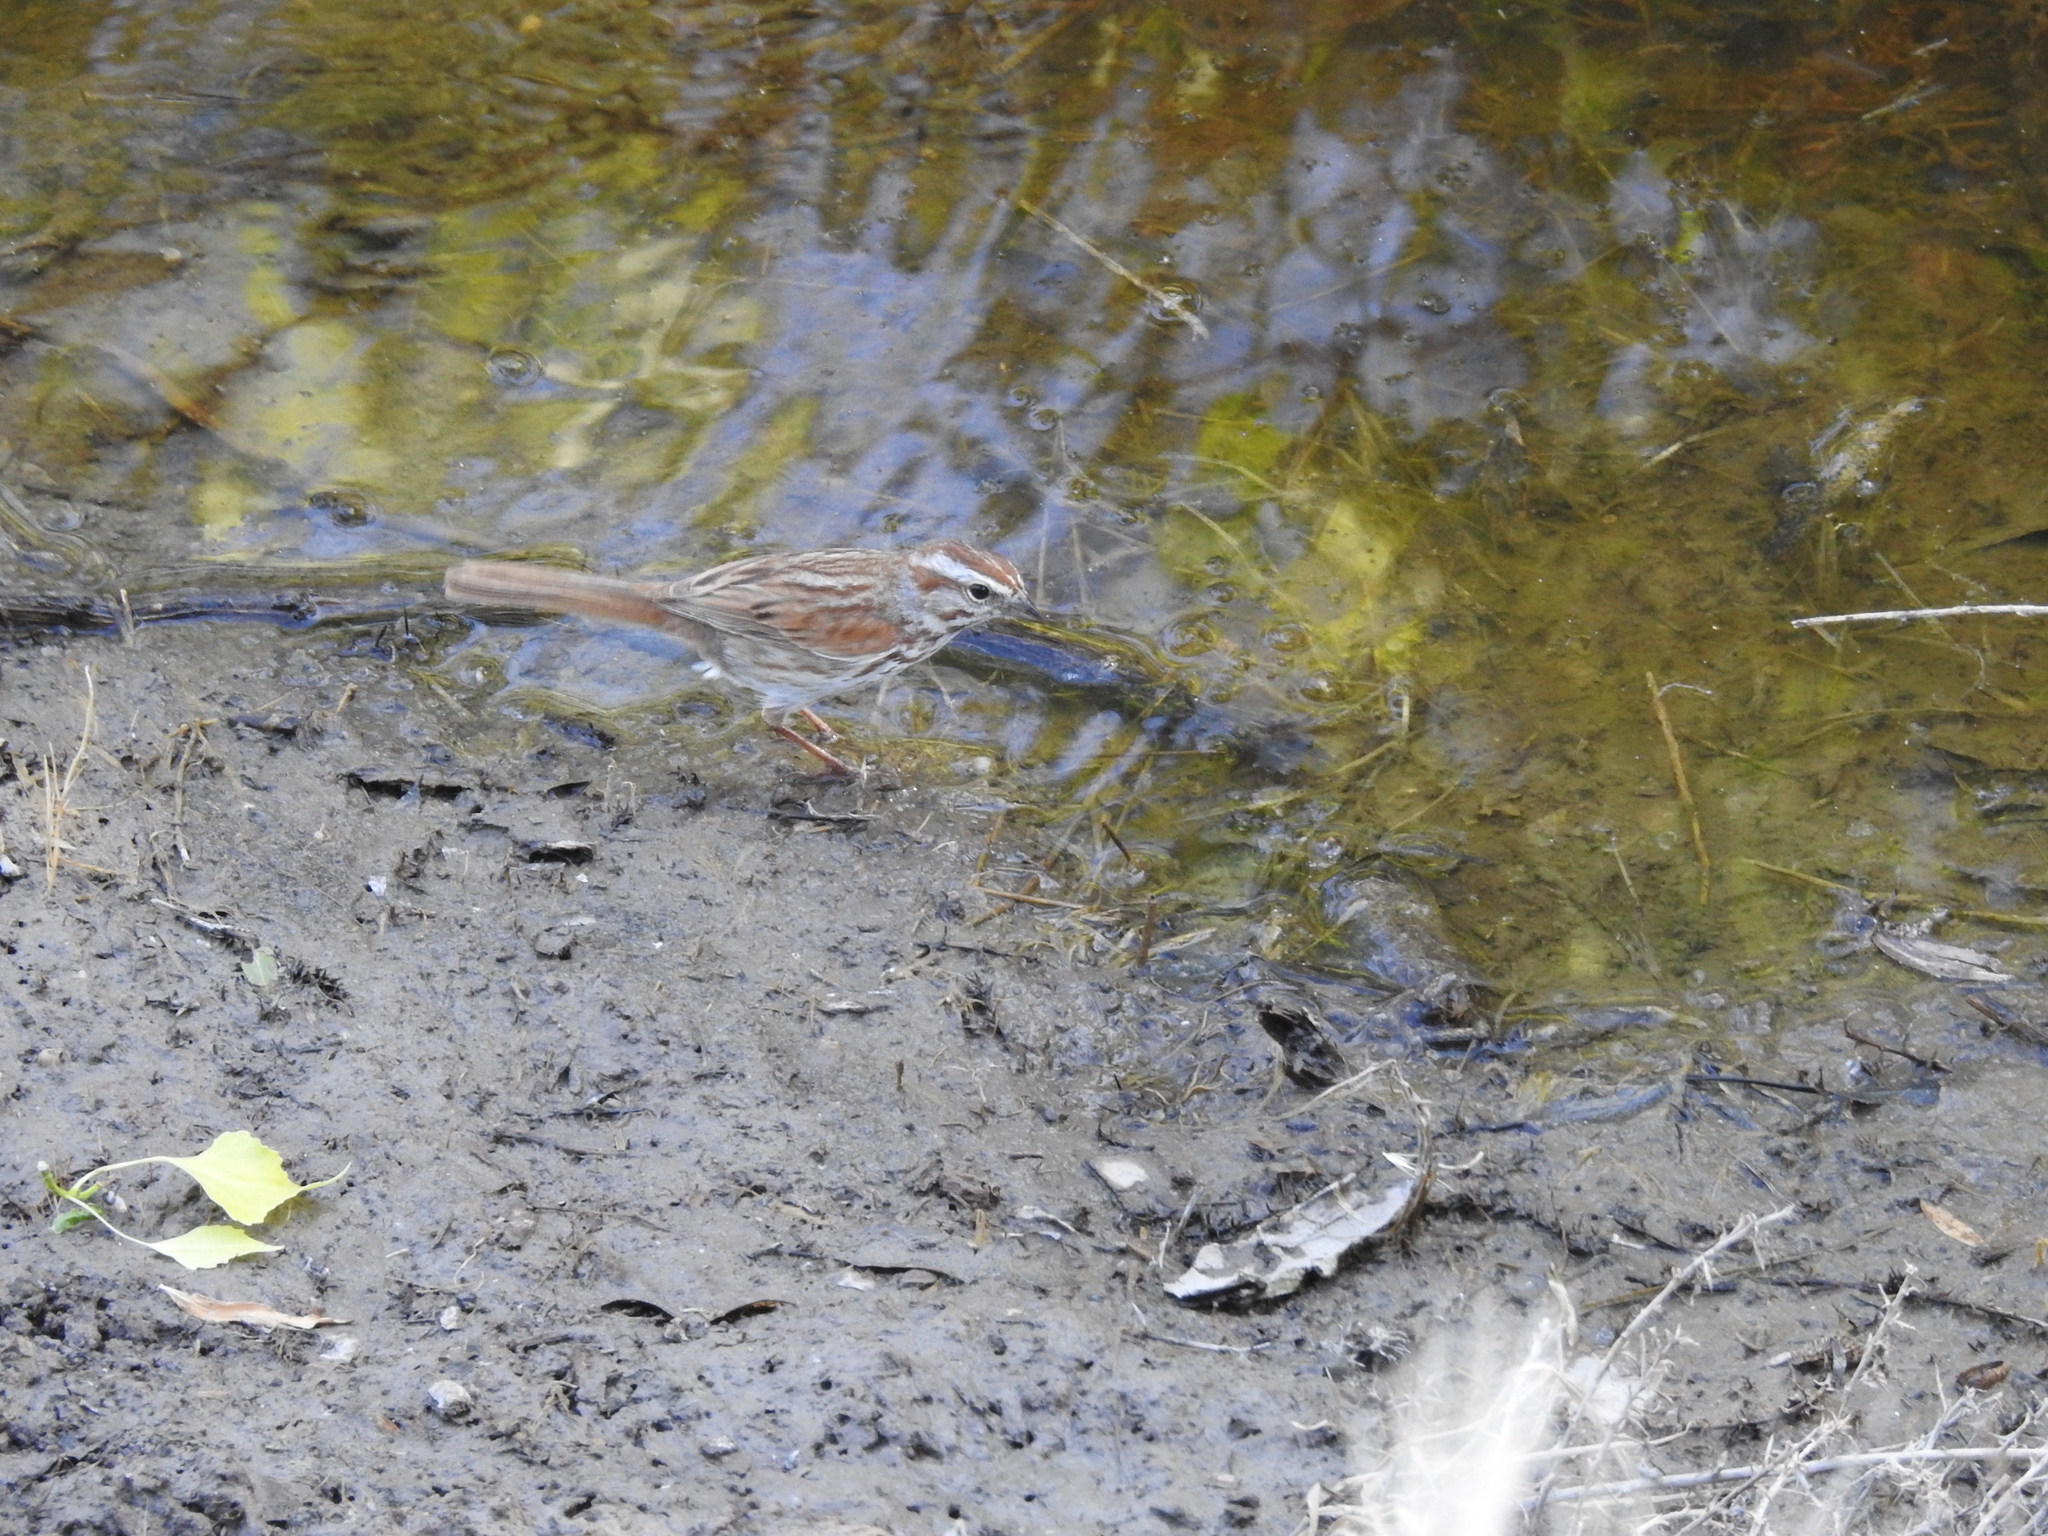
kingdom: Animalia
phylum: Chordata
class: Aves
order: Passeriformes
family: Passerellidae
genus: Melospiza
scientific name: Melospiza melodia
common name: Song sparrow
